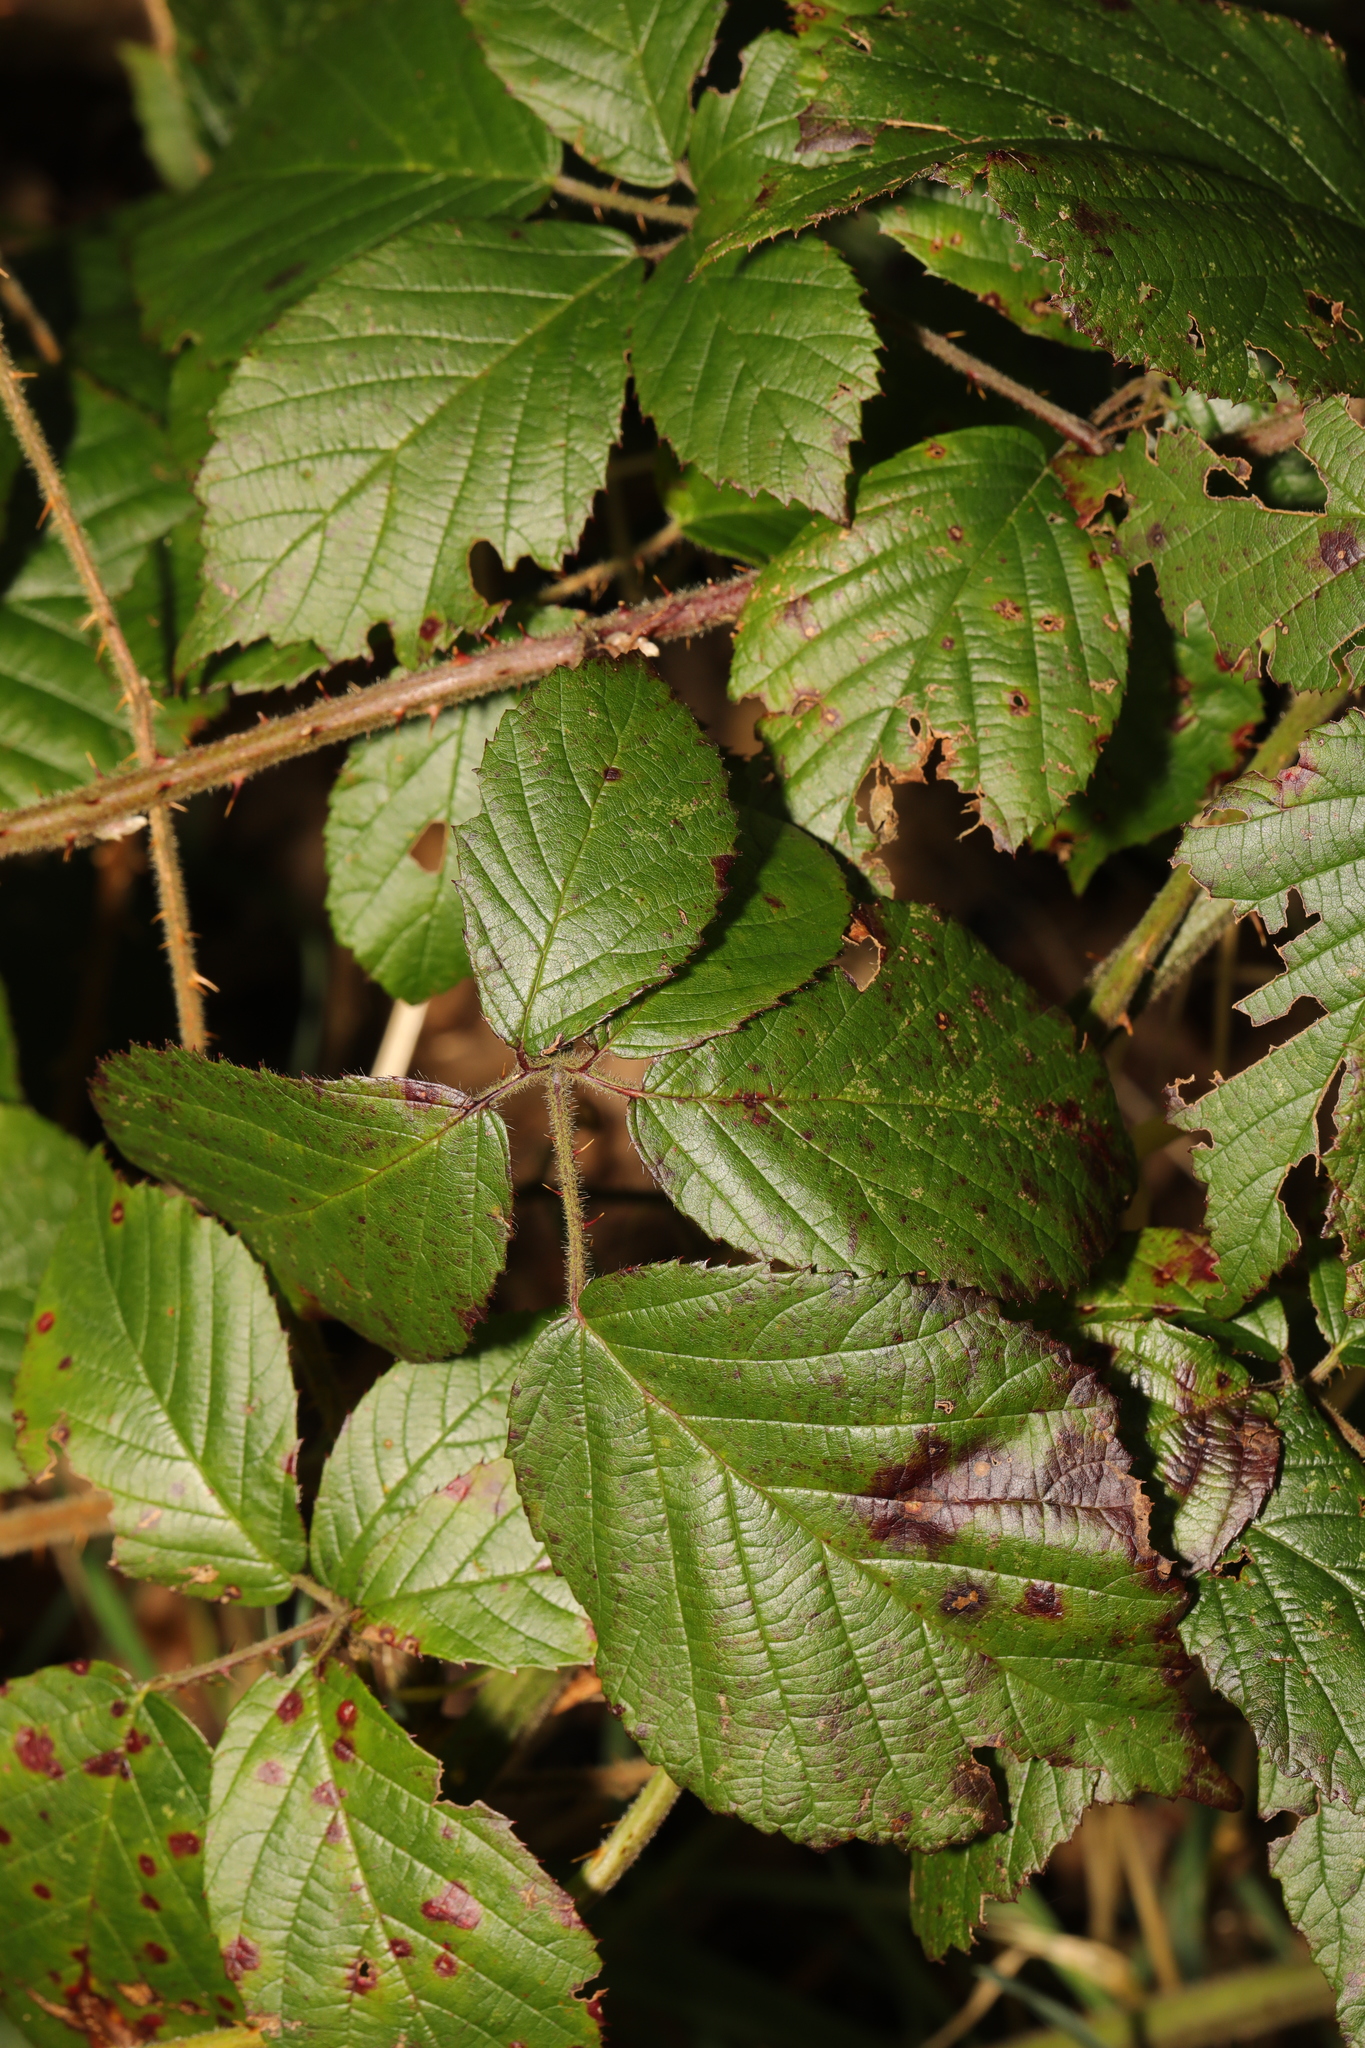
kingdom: Plantae
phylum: Tracheophyta
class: Magnoliopsida
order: Rosales
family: Rosaceae
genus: Rubus
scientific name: Rubus subtercanens
